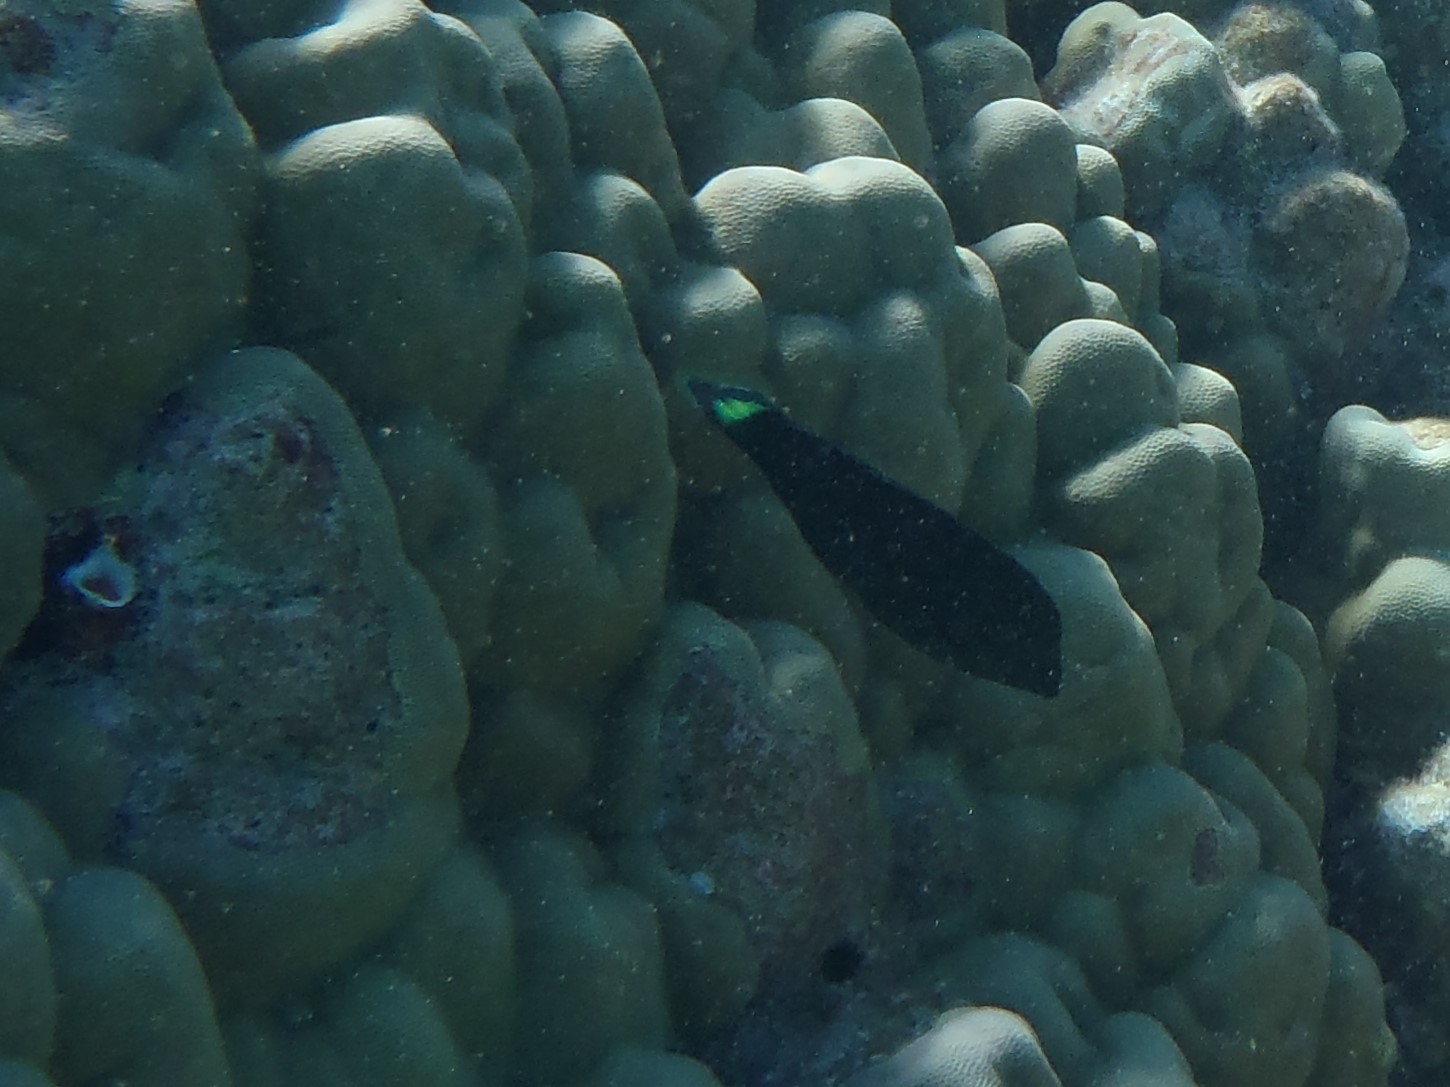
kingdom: Animalia
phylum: Chordata
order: Perciformes
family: Labridae
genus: Halichoeres
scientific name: Halichoeres
